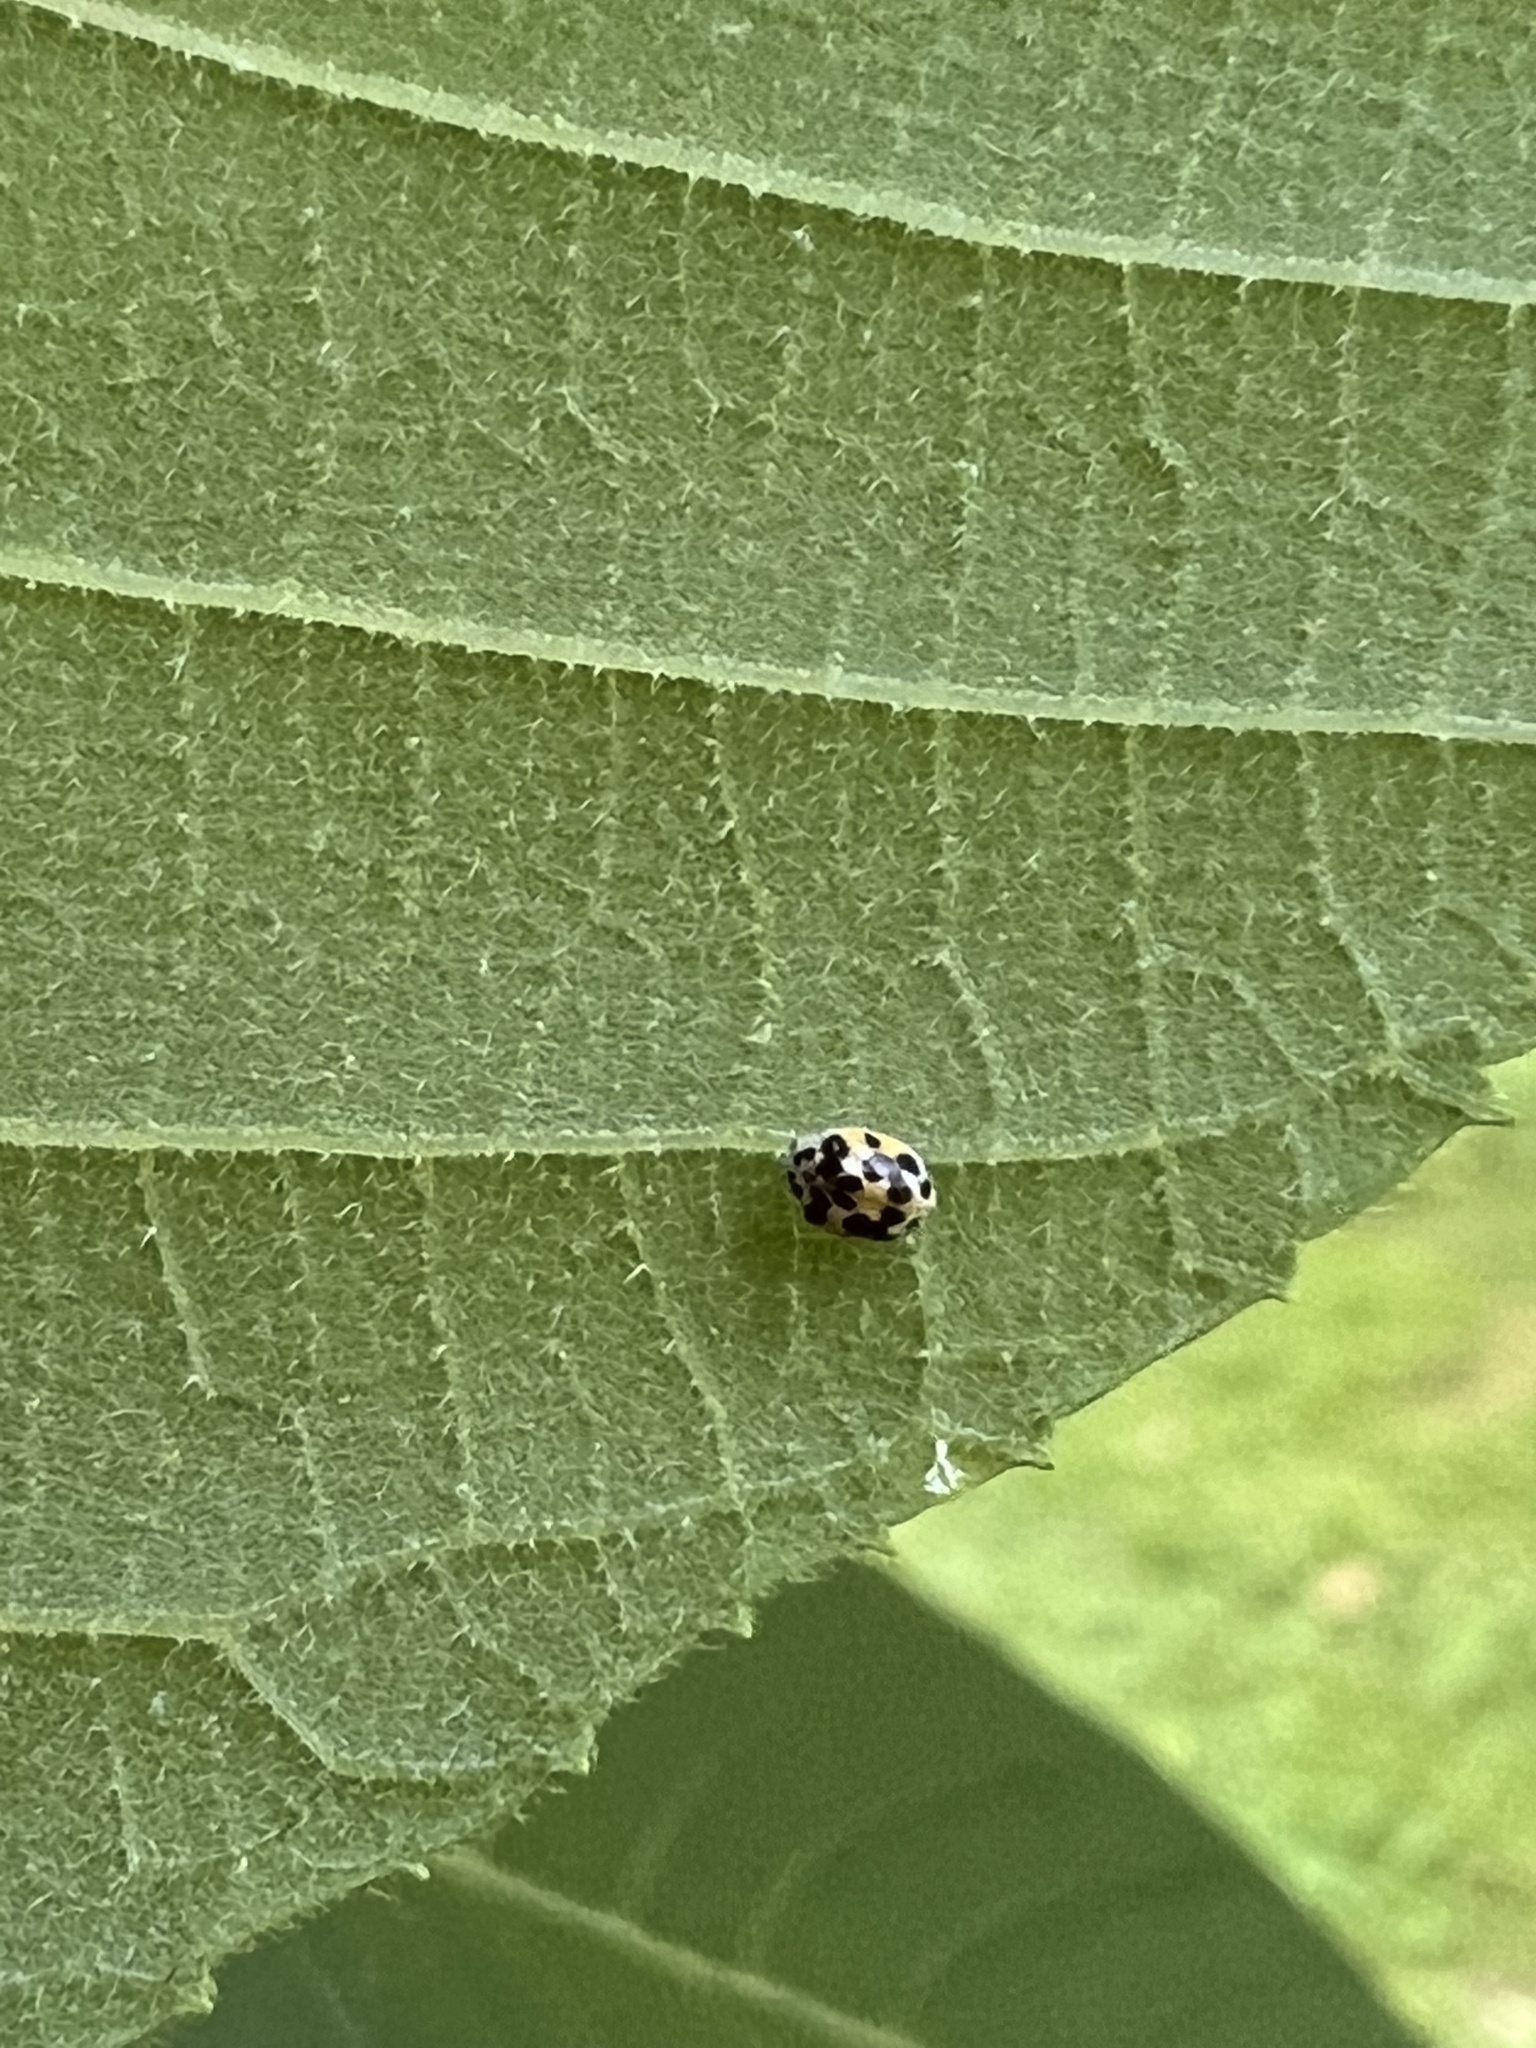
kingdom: Animalia
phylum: Arthropoda
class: Insecta
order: Coleoptera
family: Coccinellidae
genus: Psyllobora
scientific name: Psyllobora vigintimaculata
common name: Ladybird beetle
